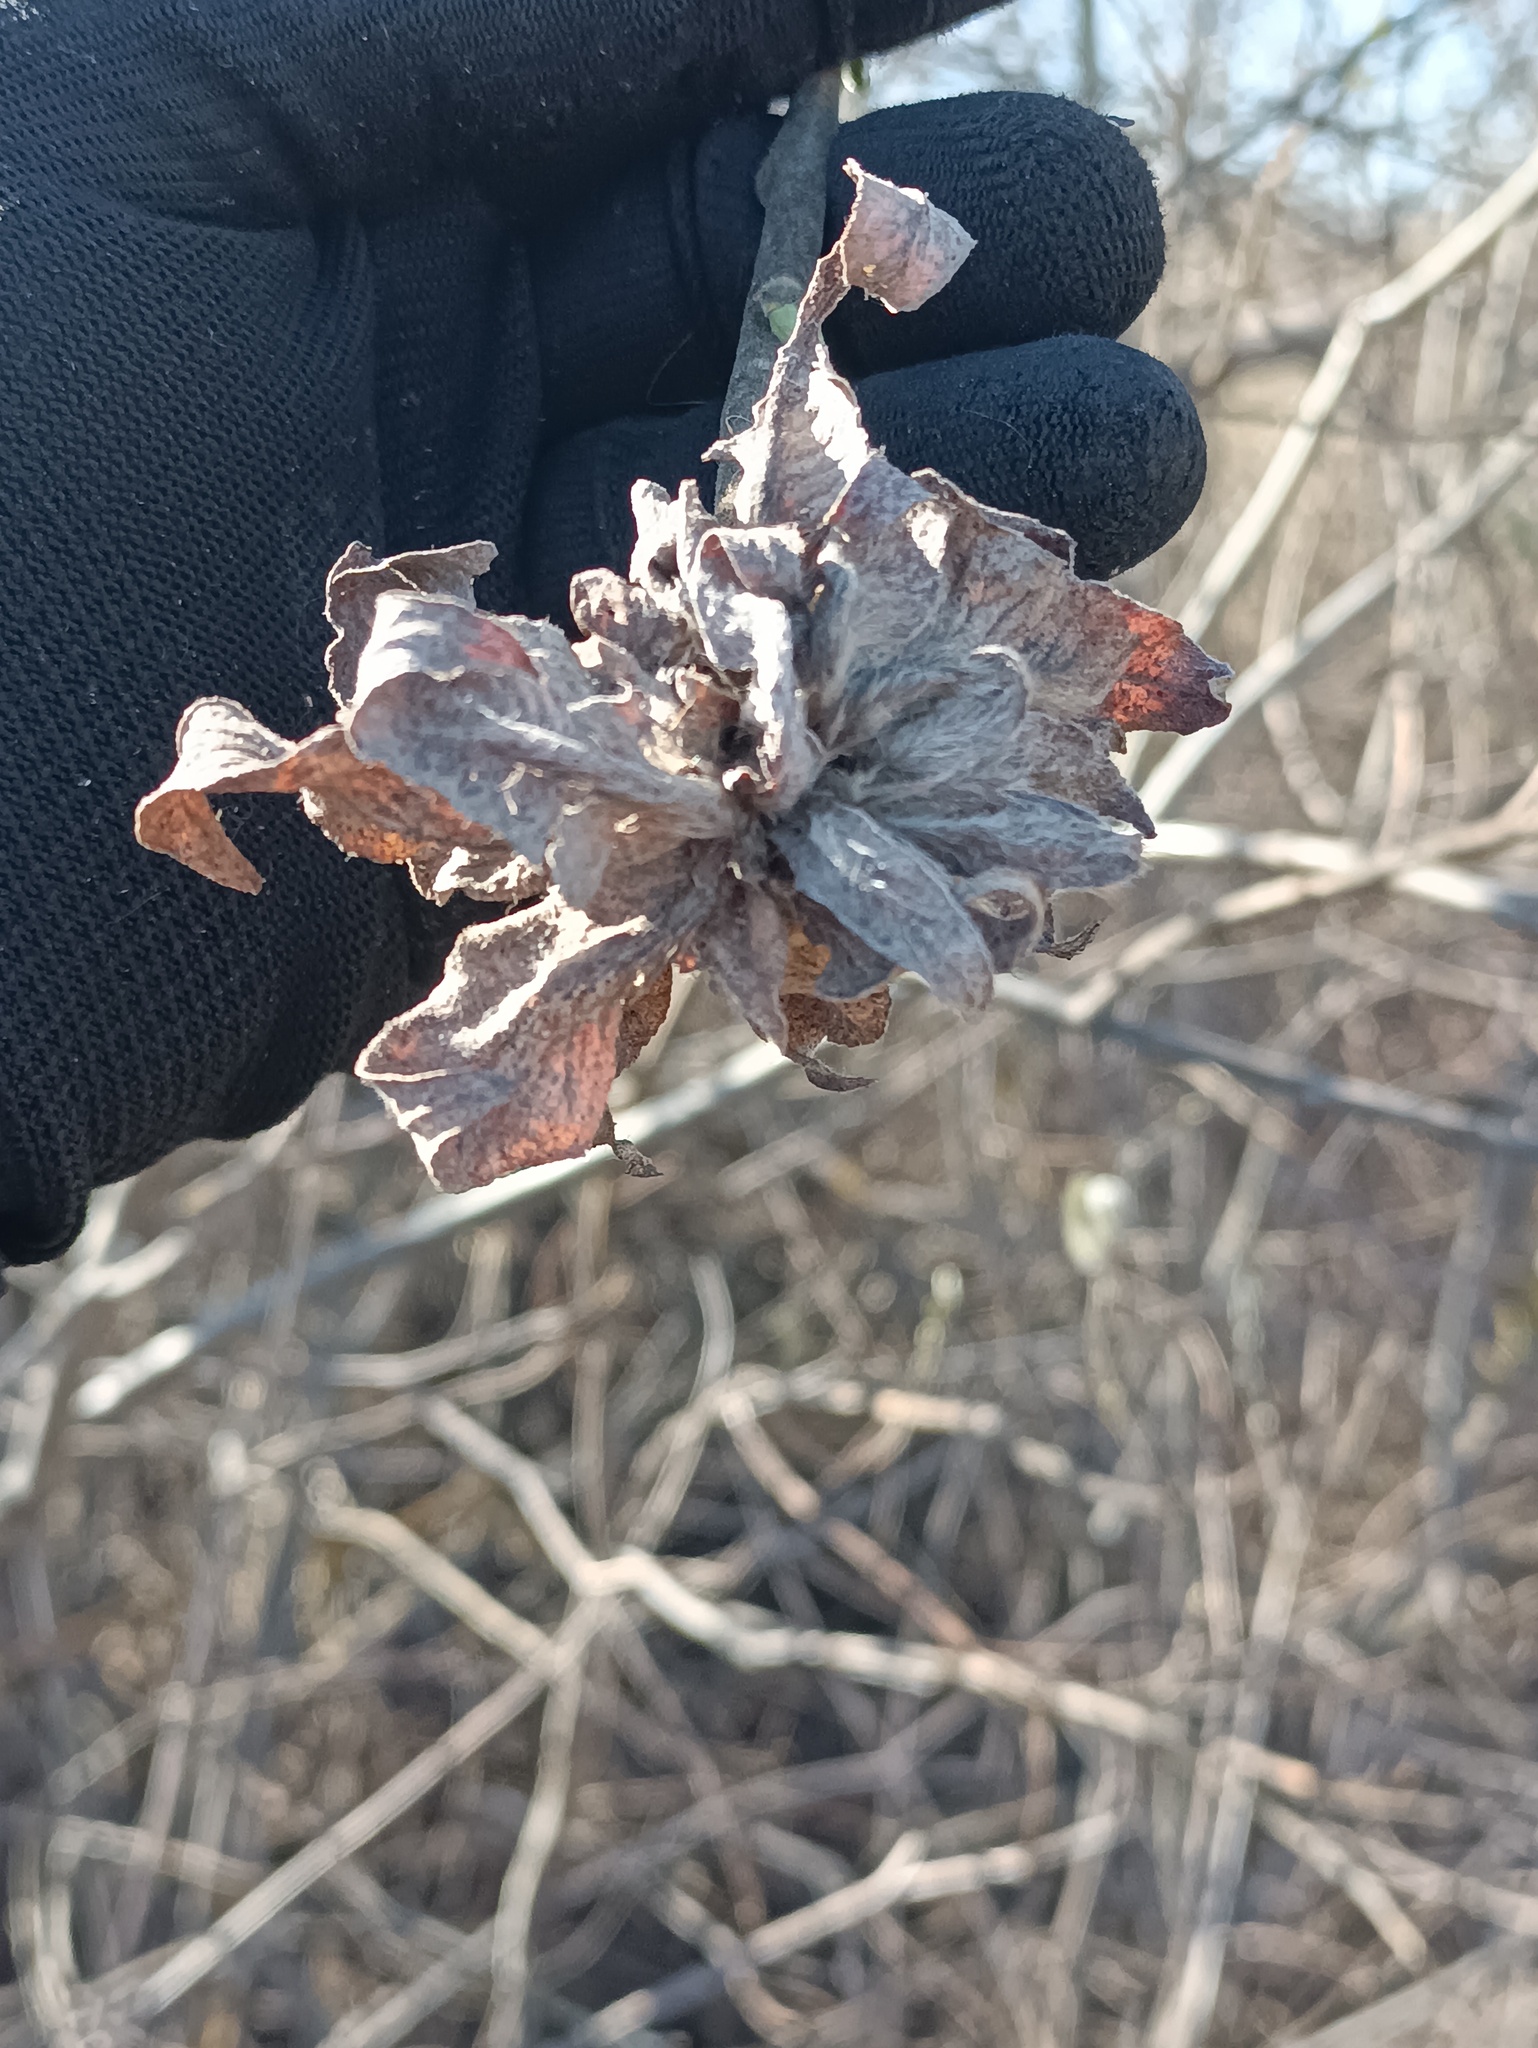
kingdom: Animalia
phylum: Arthropoda
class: Insecta
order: Diptera
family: Cecidomyiidae
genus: Rabdophaga
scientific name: Rabdophaga rosaria
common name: Willow rose gall midge
